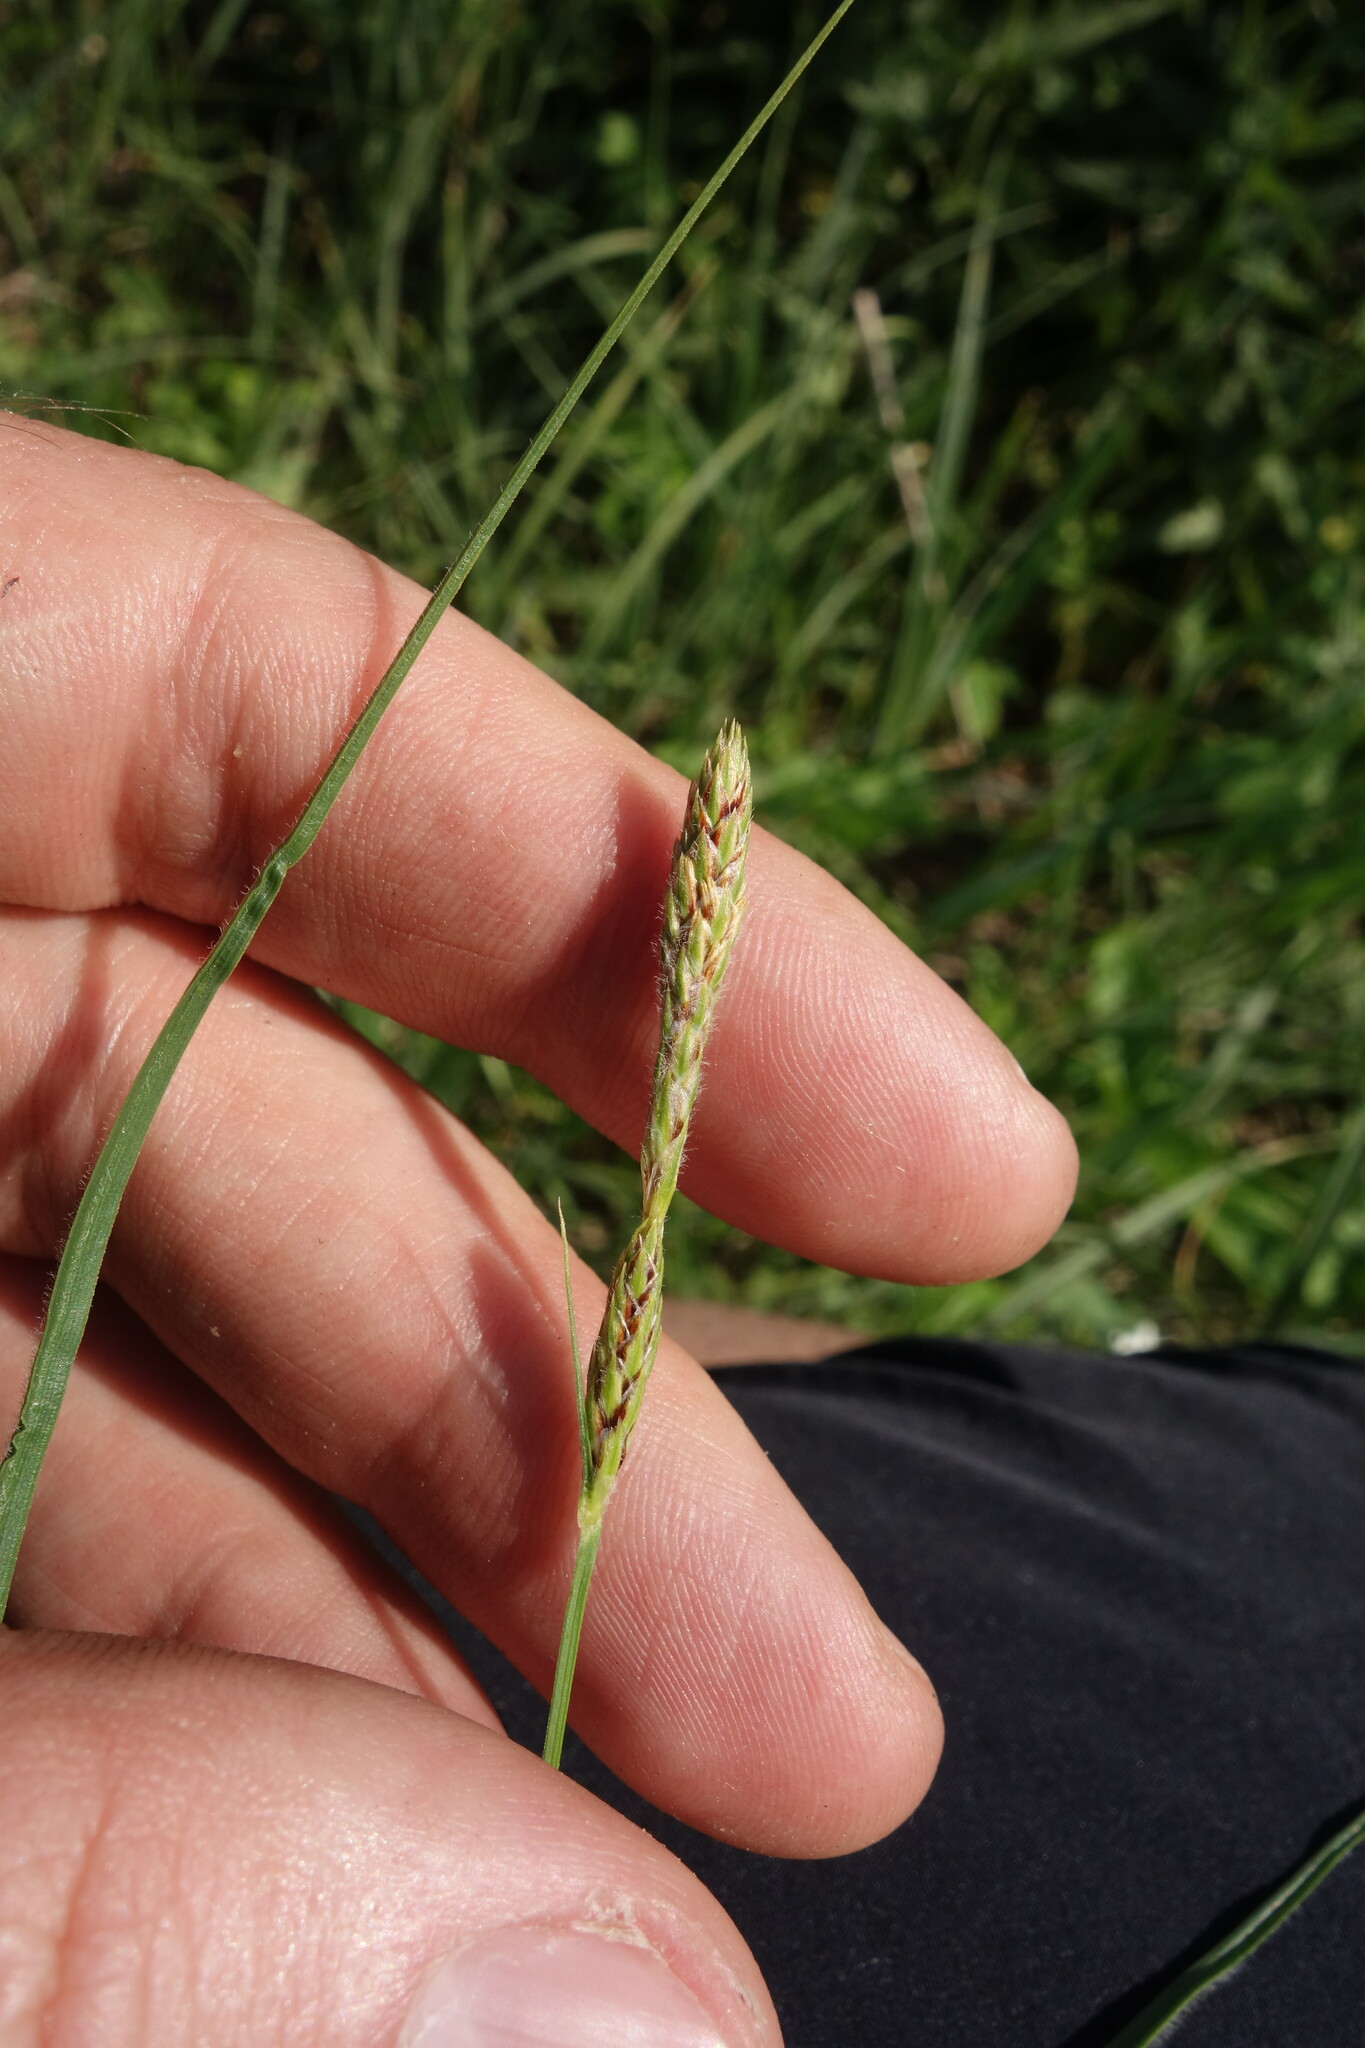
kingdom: Plantae
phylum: Tracheophyta
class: Liliopsida
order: Poales
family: Cyperaceae
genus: Carex
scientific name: Carex hirta
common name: Hairy sedge
